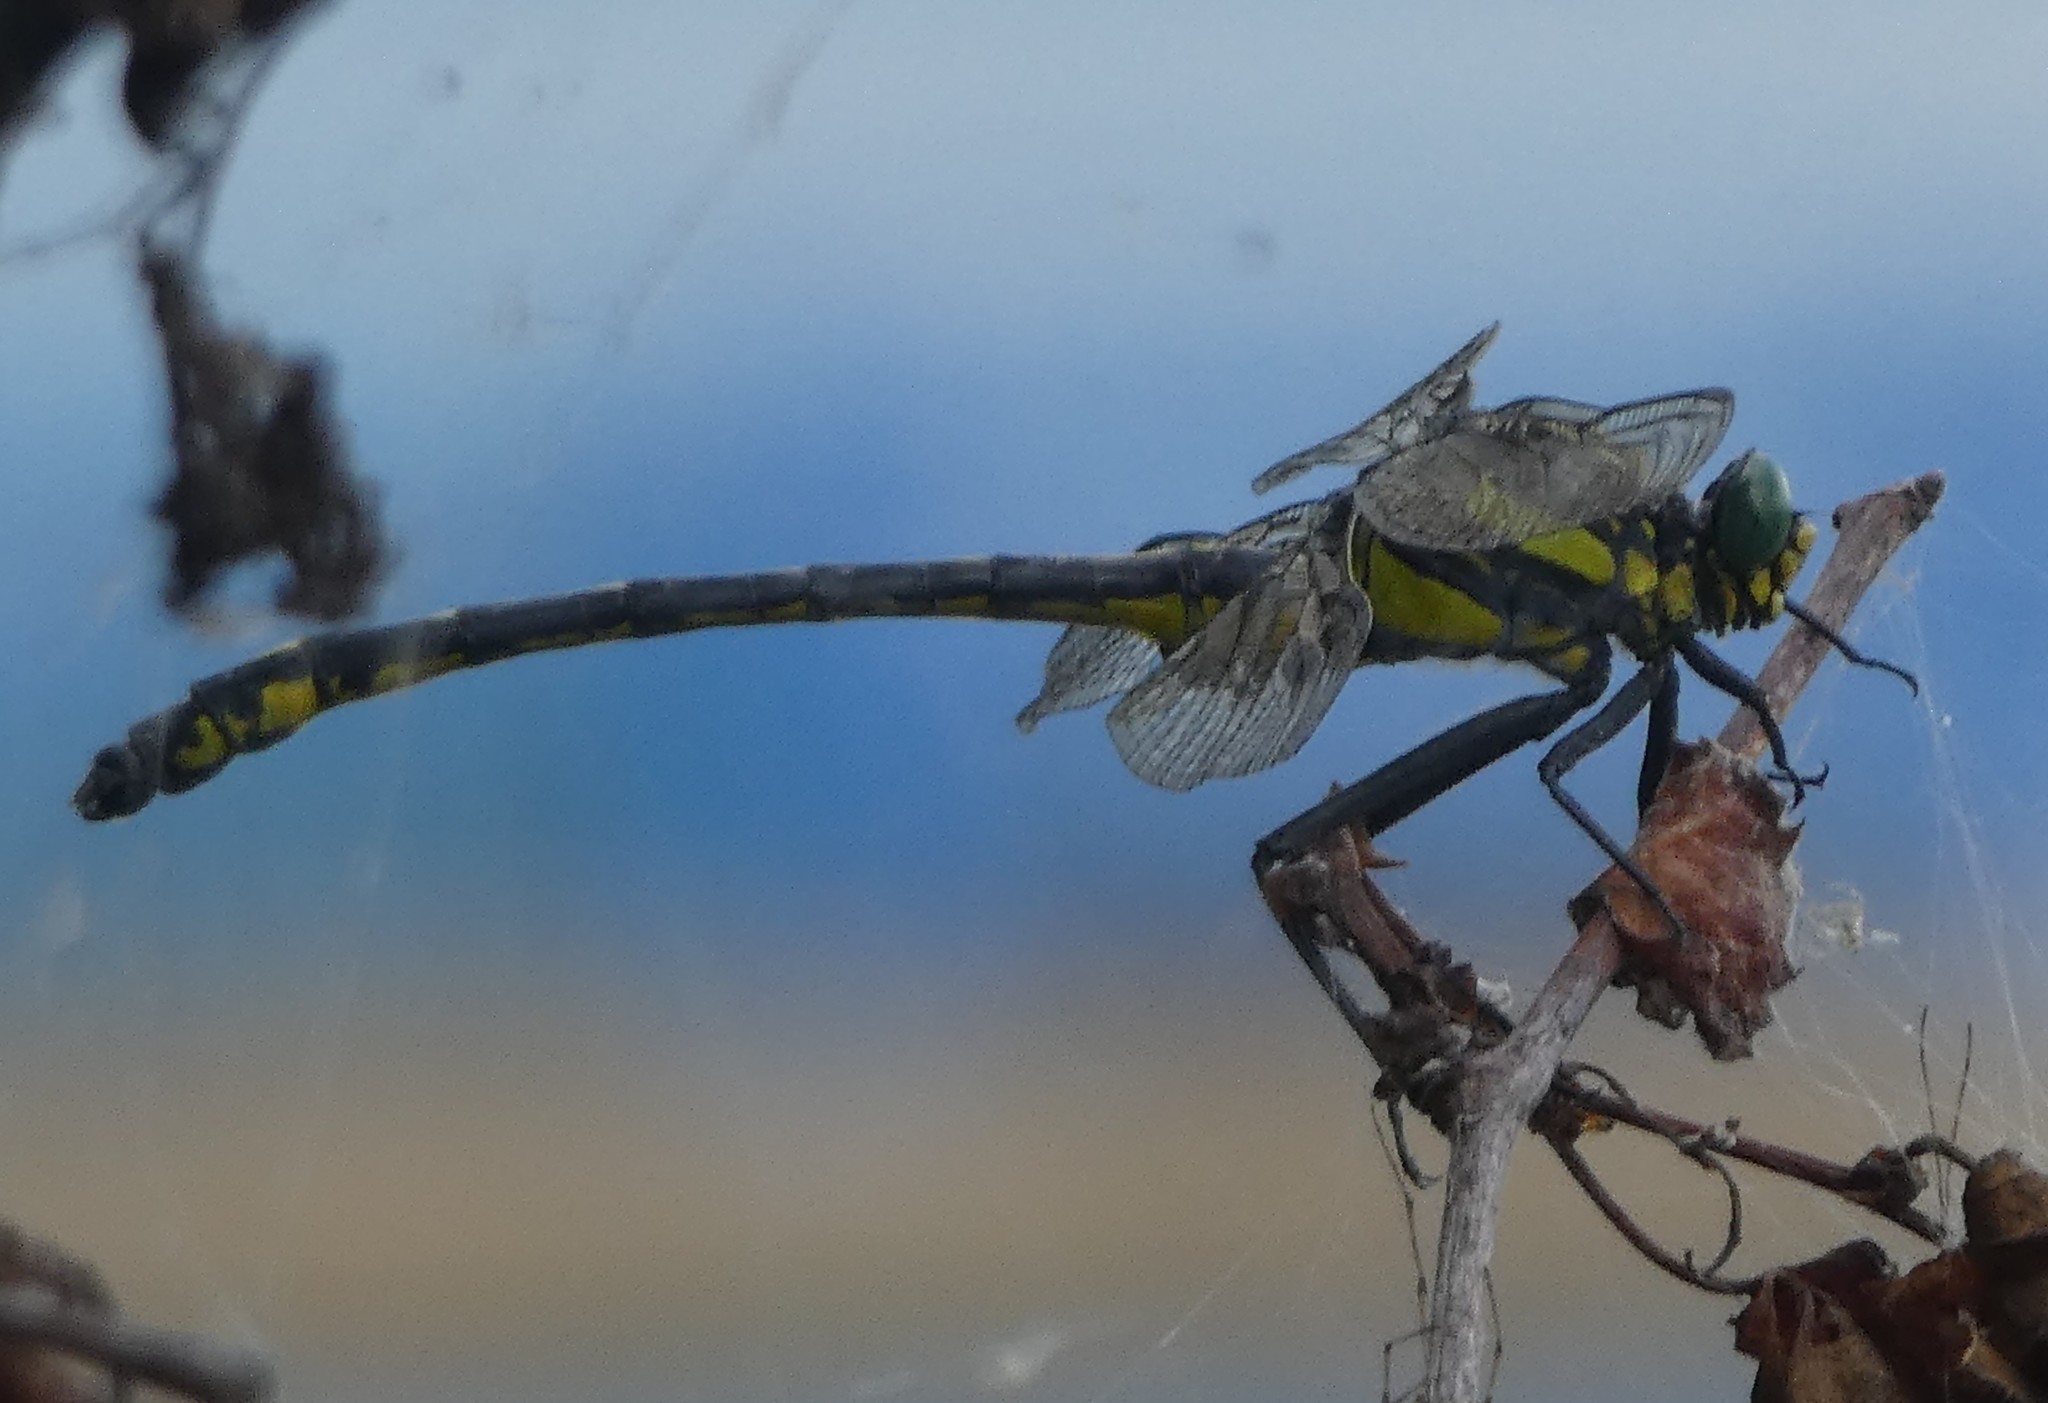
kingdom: Animalia
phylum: Arthropoda
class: Insecta
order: Odonata
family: Gomphidae
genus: Hagenius
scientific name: Hagenius brevistylus
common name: Dragonhunter
